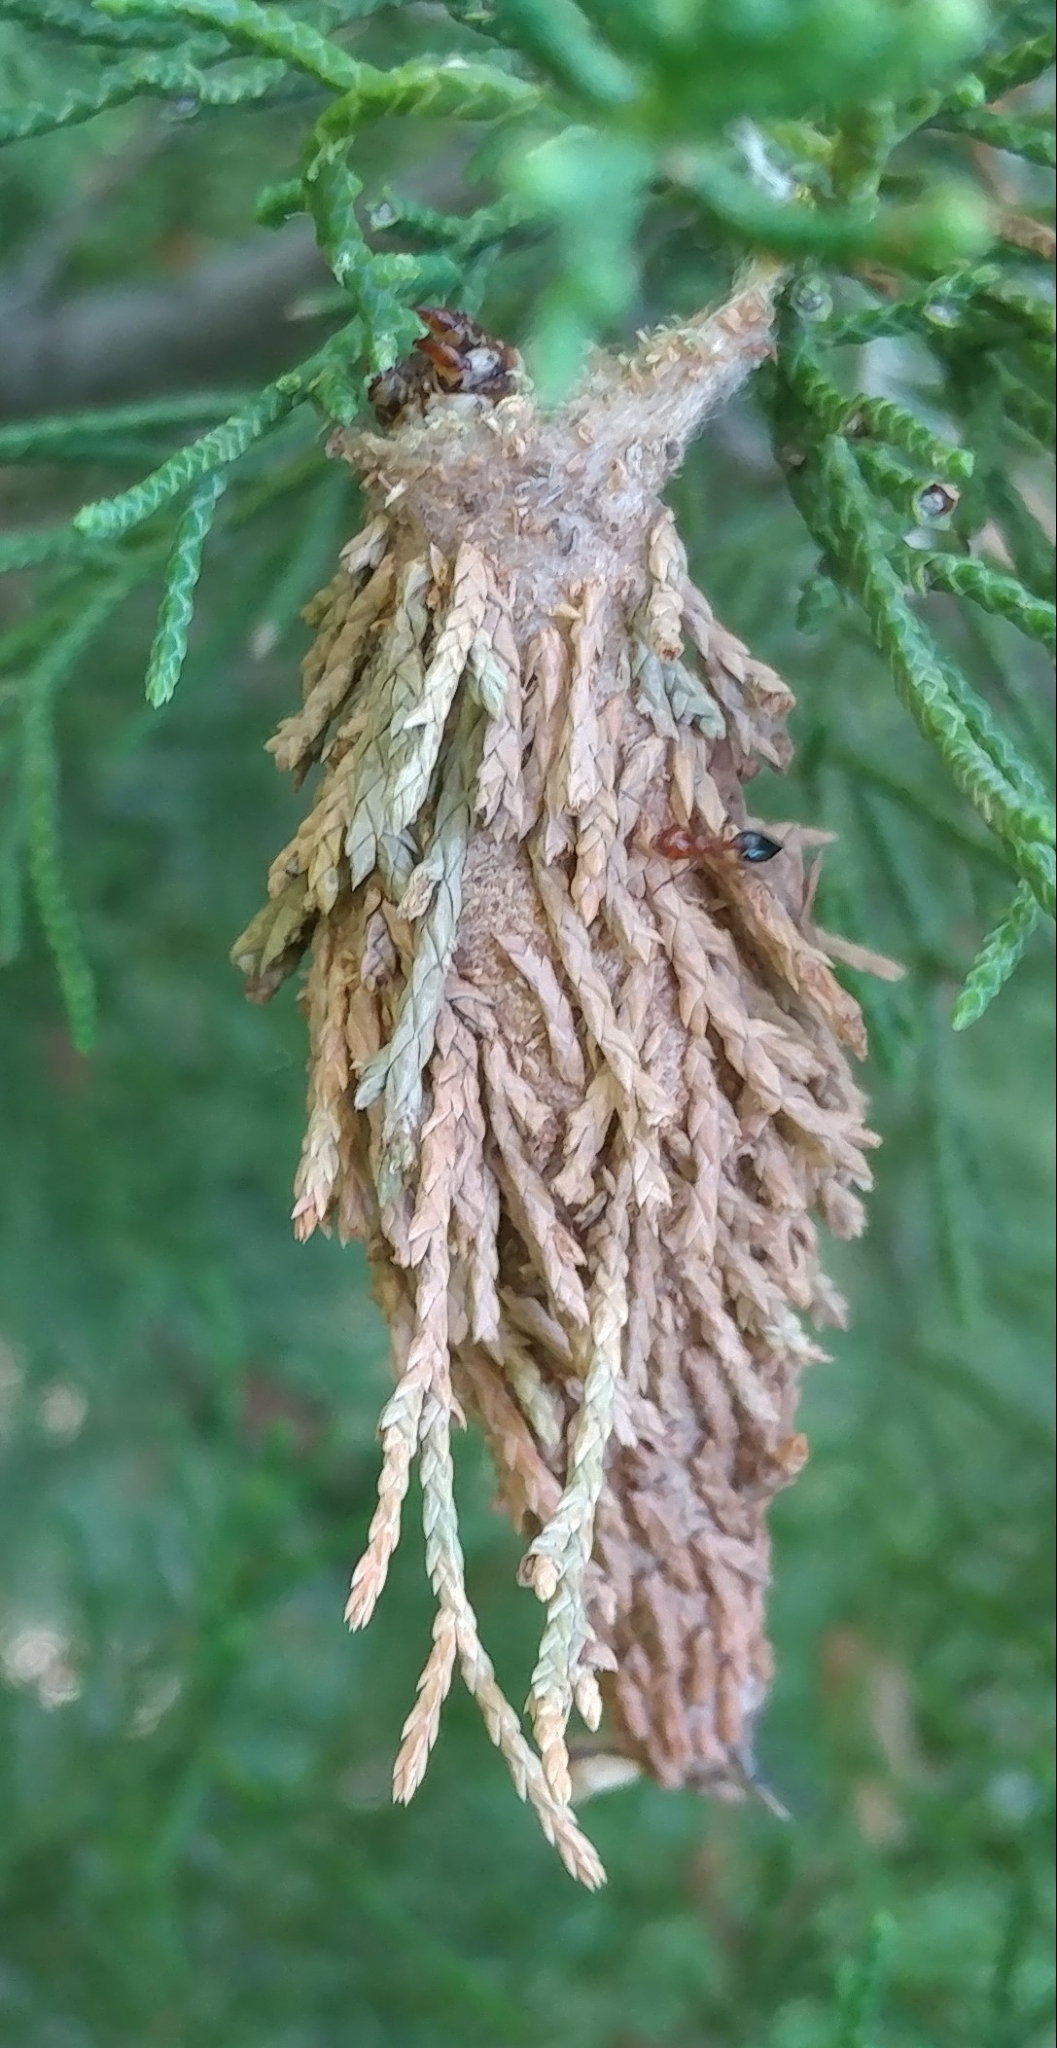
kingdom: Animalia
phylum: Arthropoda
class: Insecta
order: Lepidoptera
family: Psychidae
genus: Thyridopteryx
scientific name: Thyridopteryx ephemeraeformis
